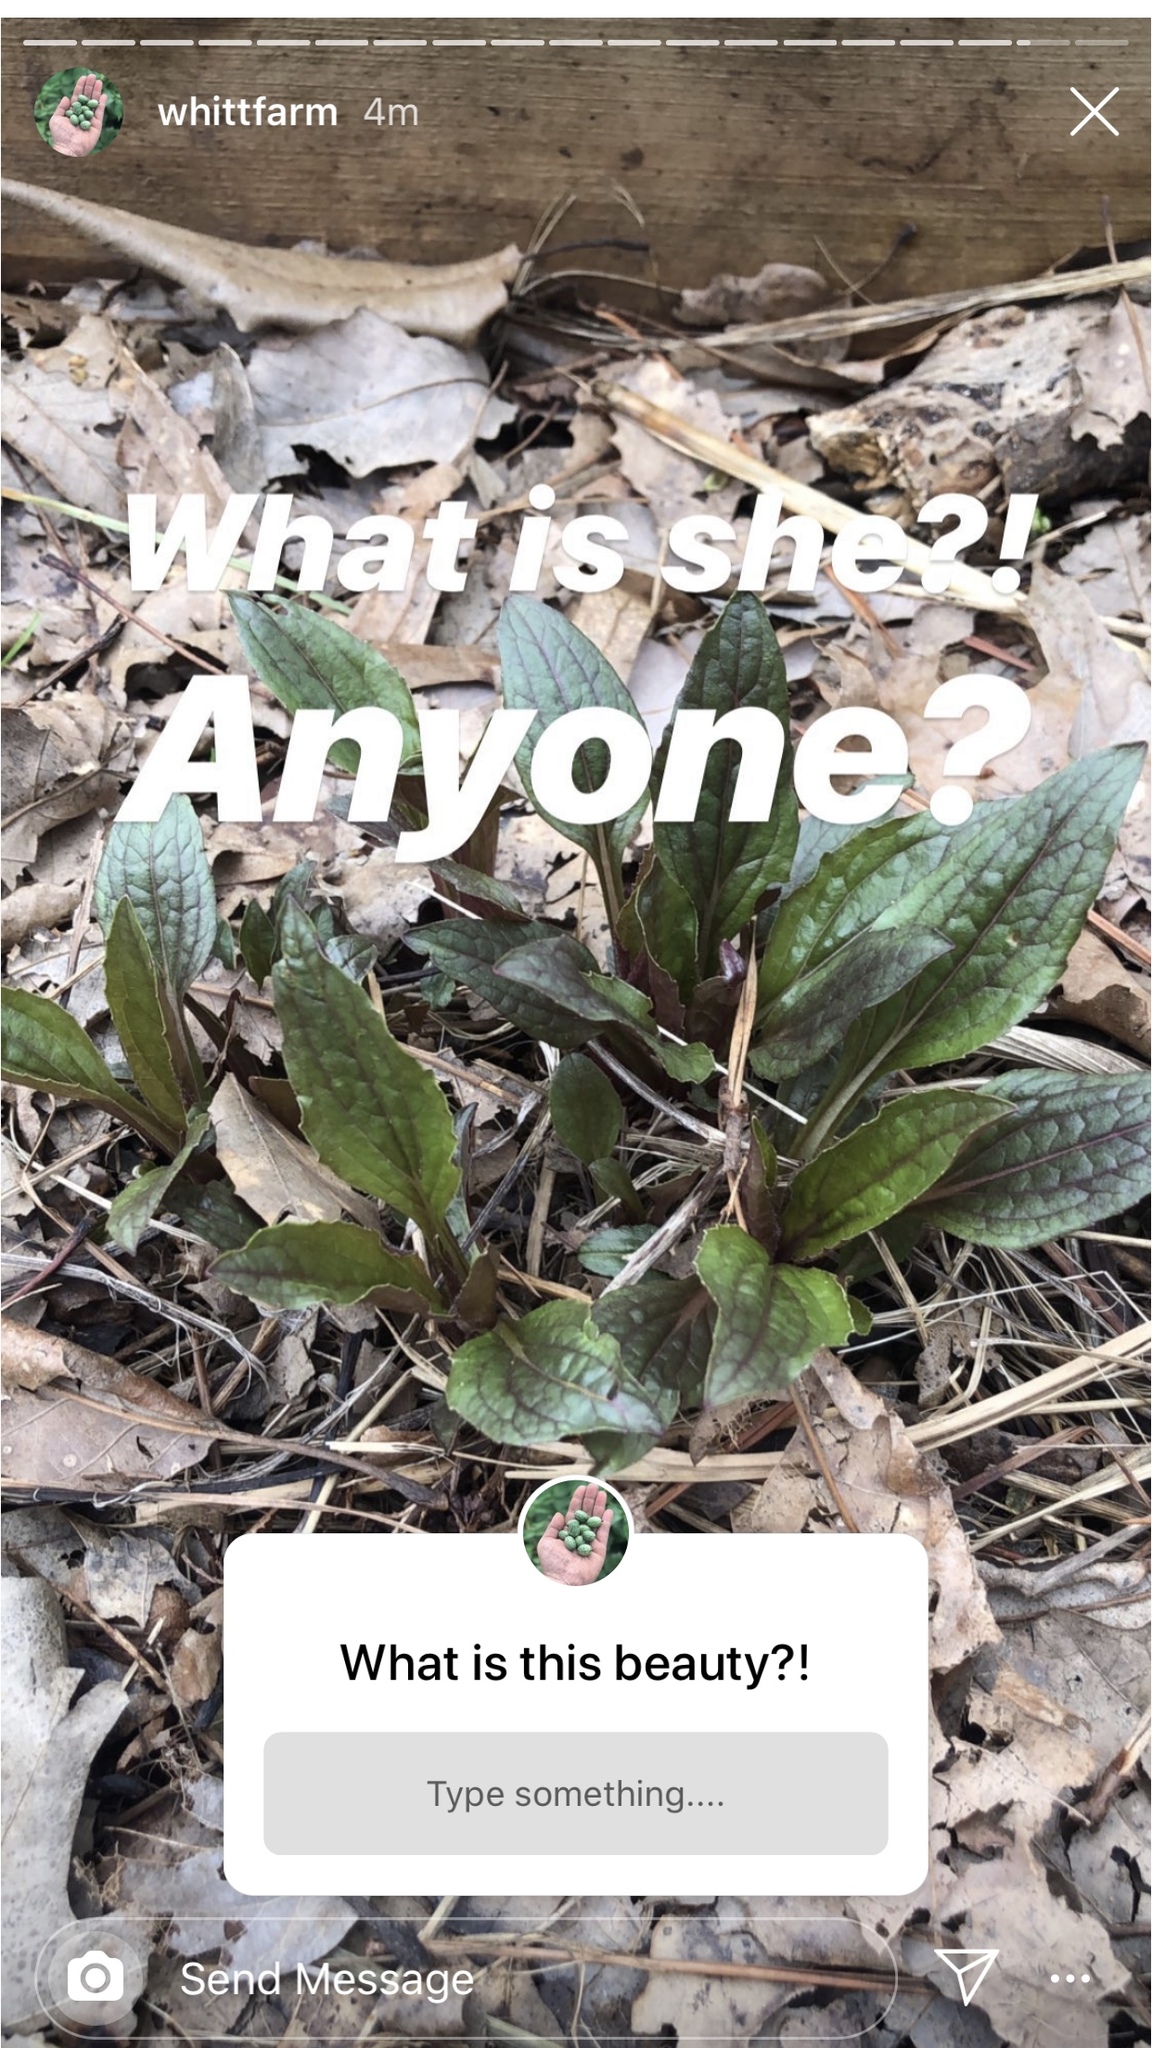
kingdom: Plantae
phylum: Tracheophyta
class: Magnoliopsida
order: Asterales
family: Asteraceae
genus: Hieracium
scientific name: Hieracium venosum
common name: Rattlesnake hawkweed
